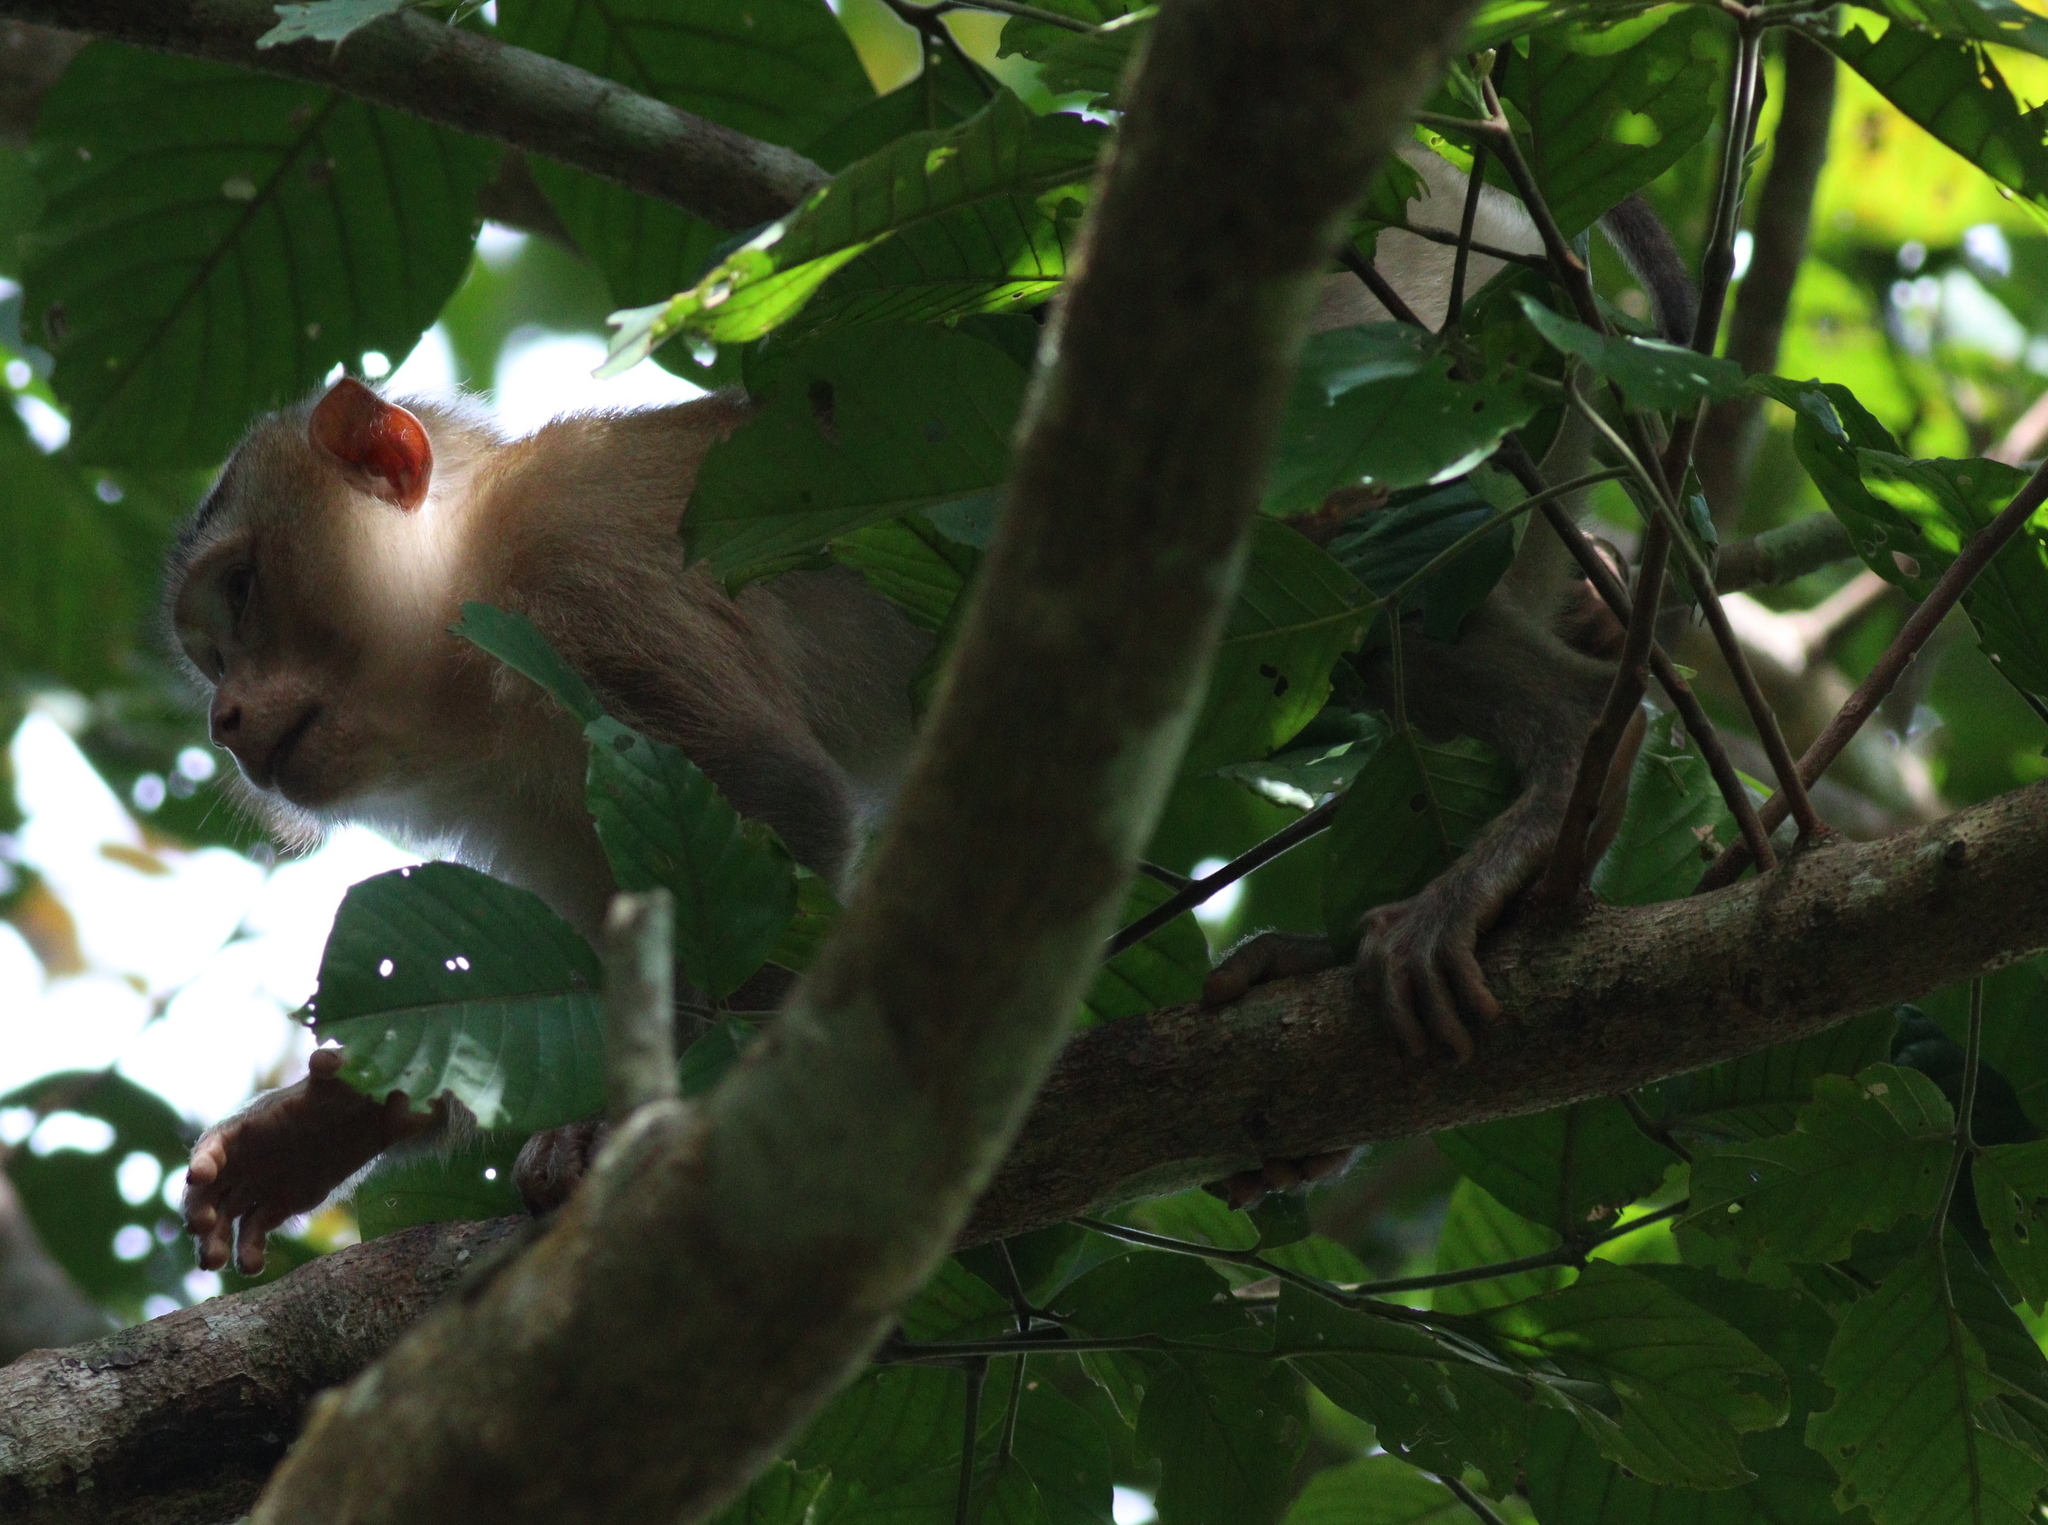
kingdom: Animalia
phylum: Chordata
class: Mammalia
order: Primates
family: Cercopithecidae
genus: Macaca
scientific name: Macaca leonina
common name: Northern pig-tailed macaque
